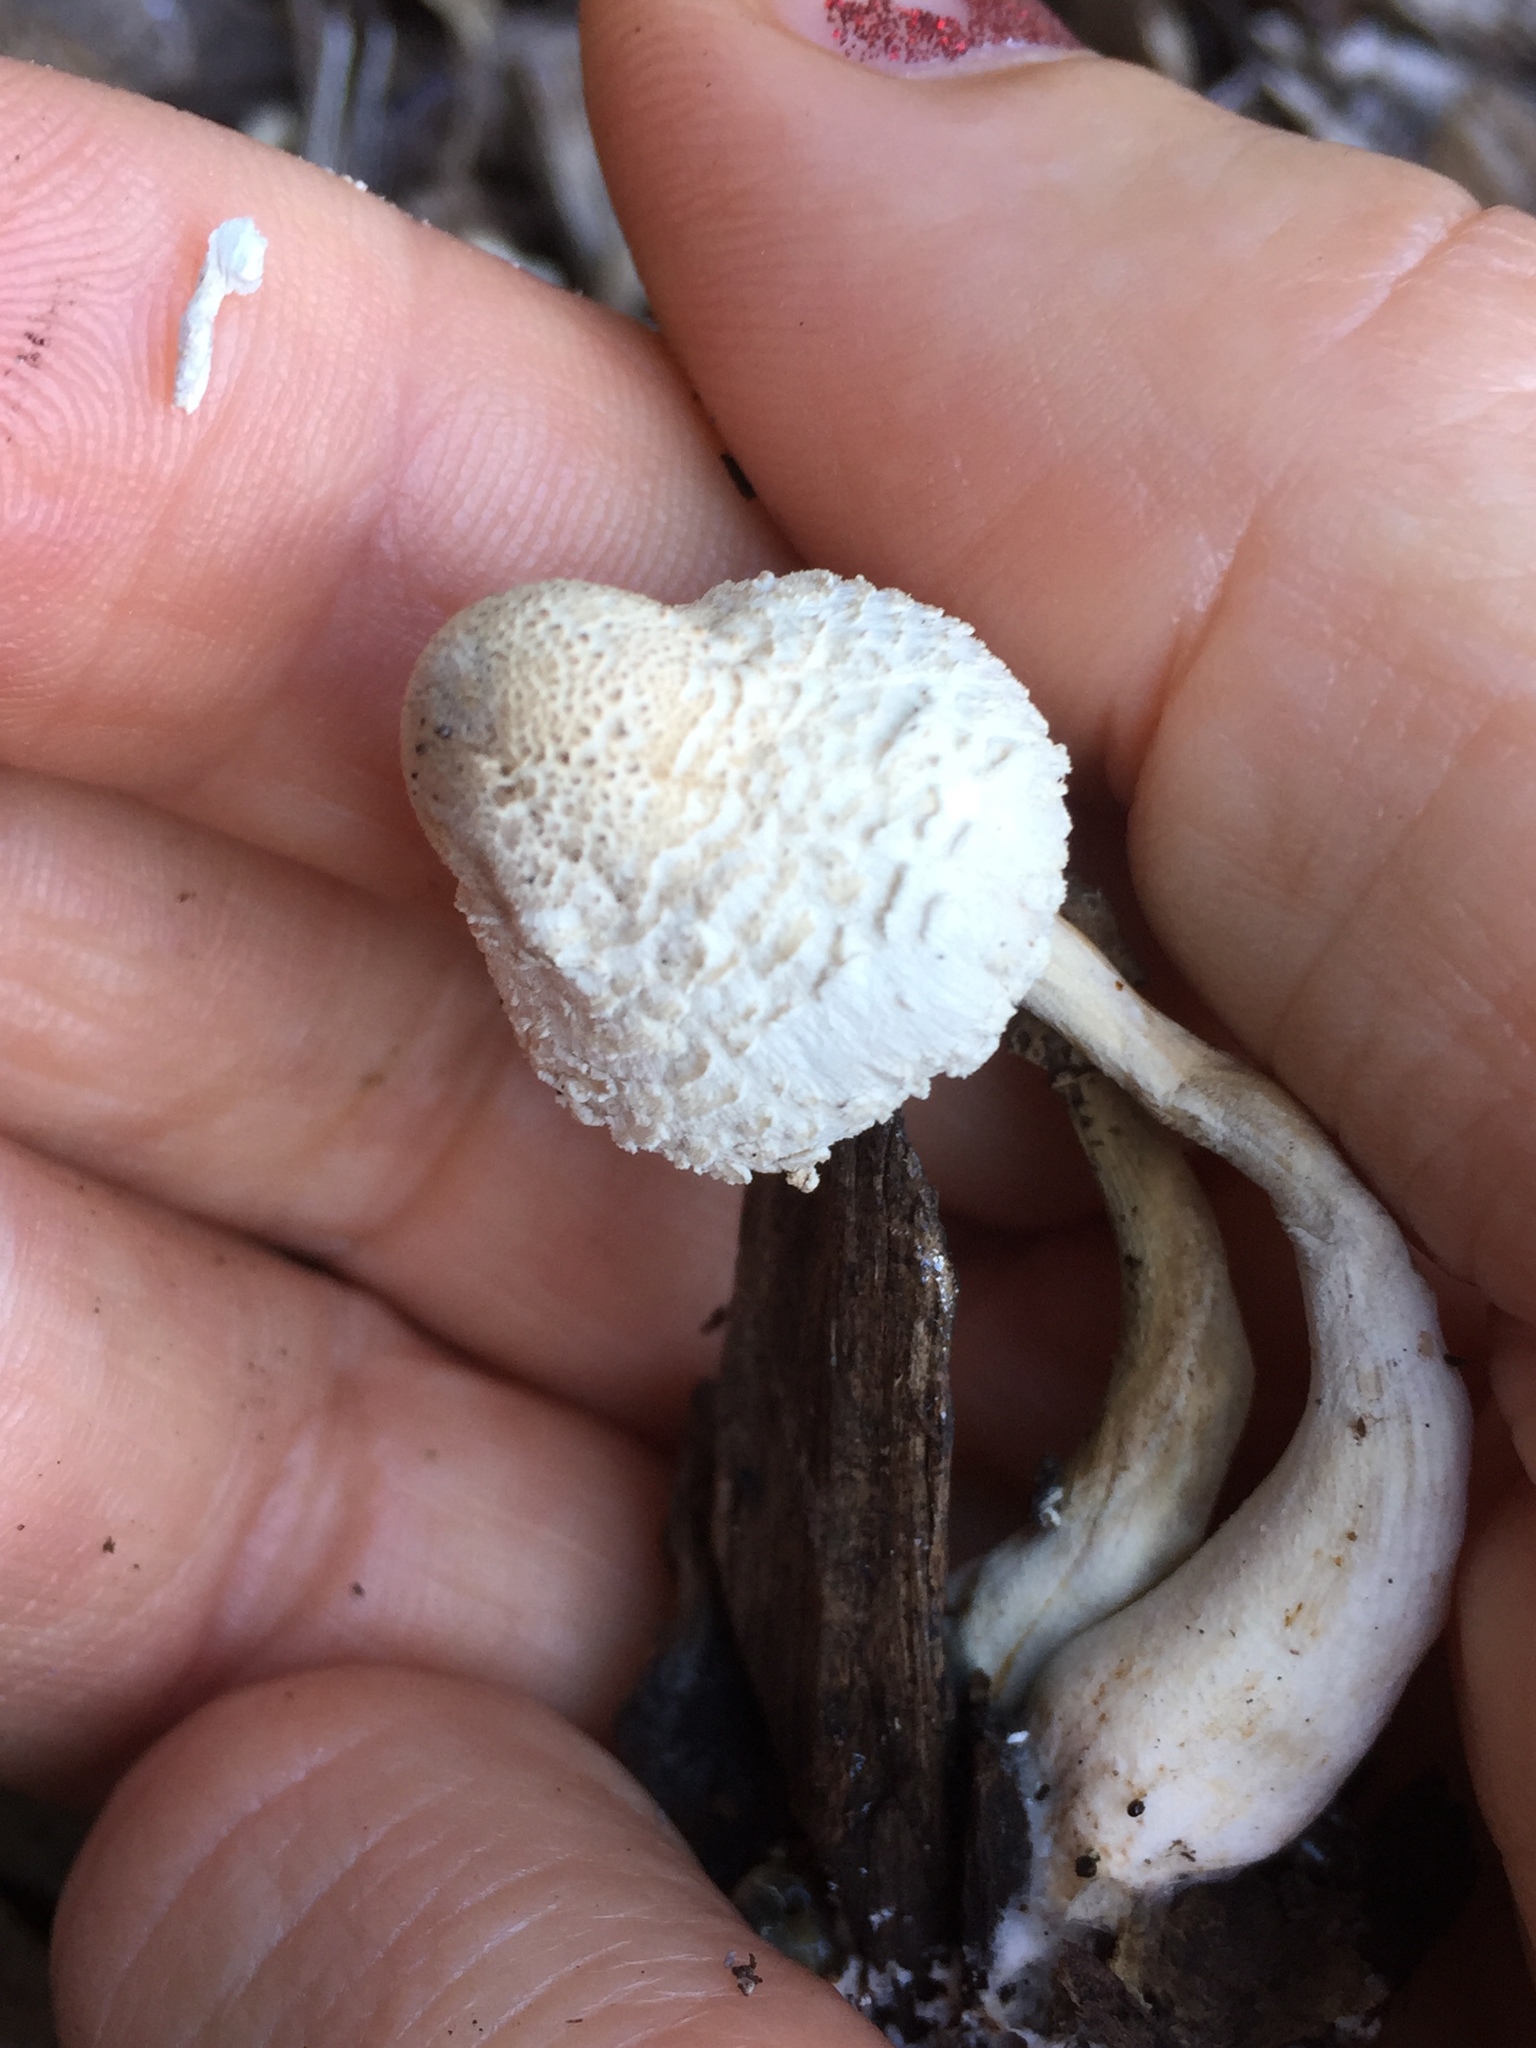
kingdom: Fungi
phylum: Basidiomycota
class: Agaricomycetes
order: Agaricales
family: Agaricaceae
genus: Leucocoprinus
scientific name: Leucocoprinus cepistipes
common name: Onion-stalk parasol
